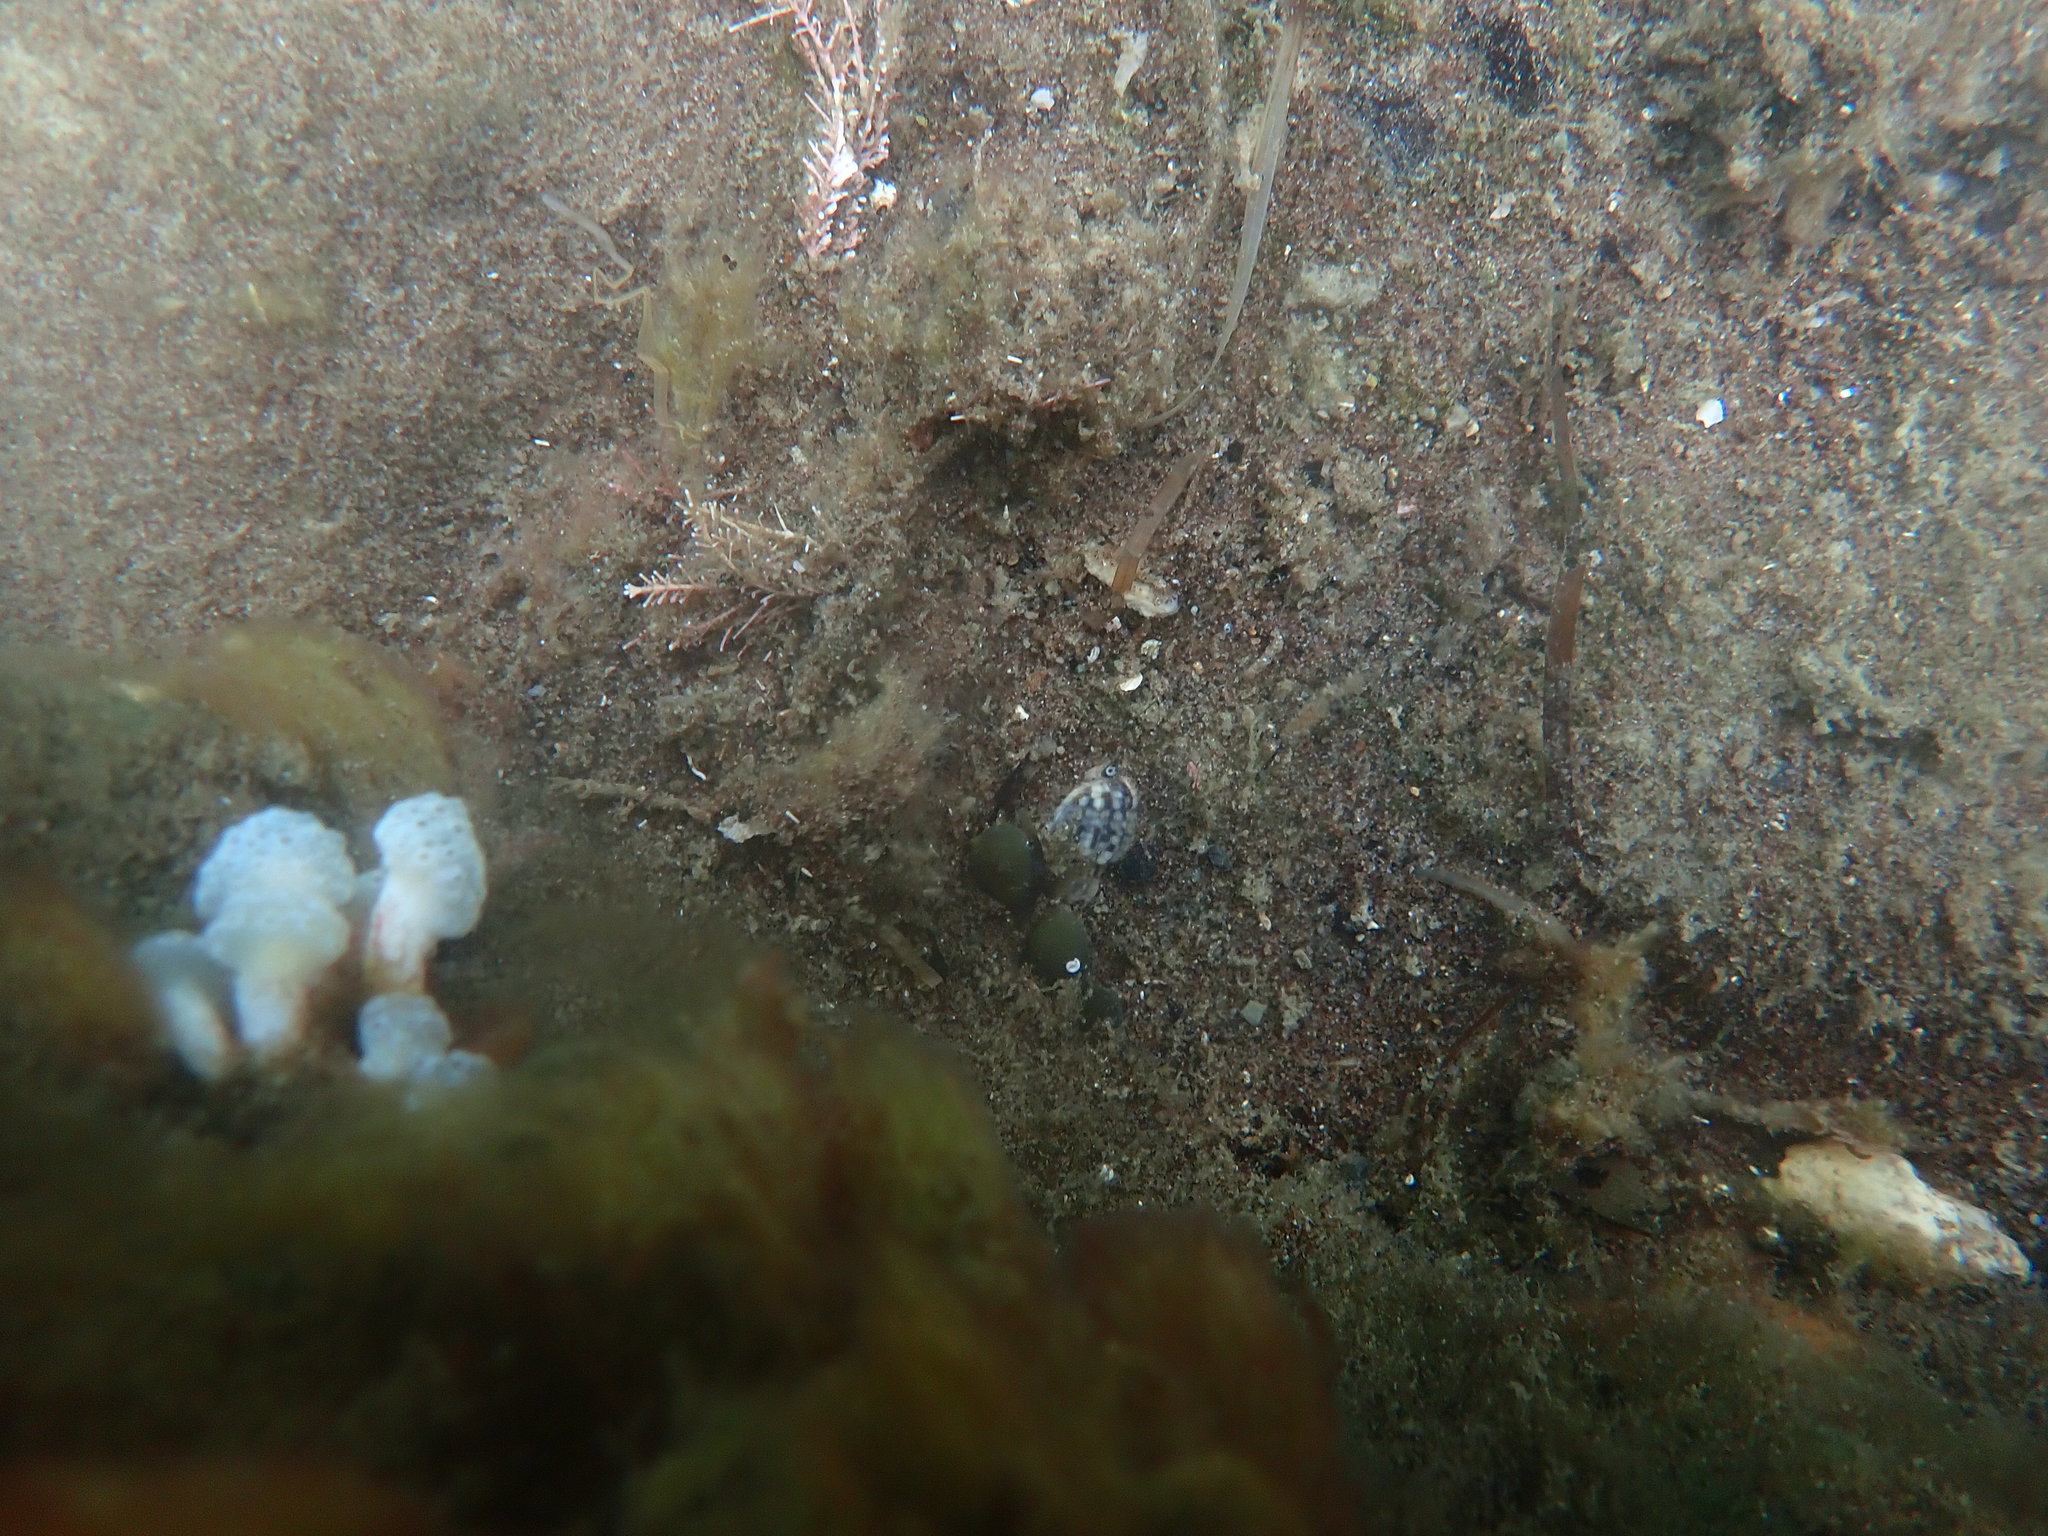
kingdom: Animalia
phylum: Mollusca
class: Gastropoda
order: Neogastropoda
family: Cominellidae
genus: Cominella
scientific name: Cominella quoyana
